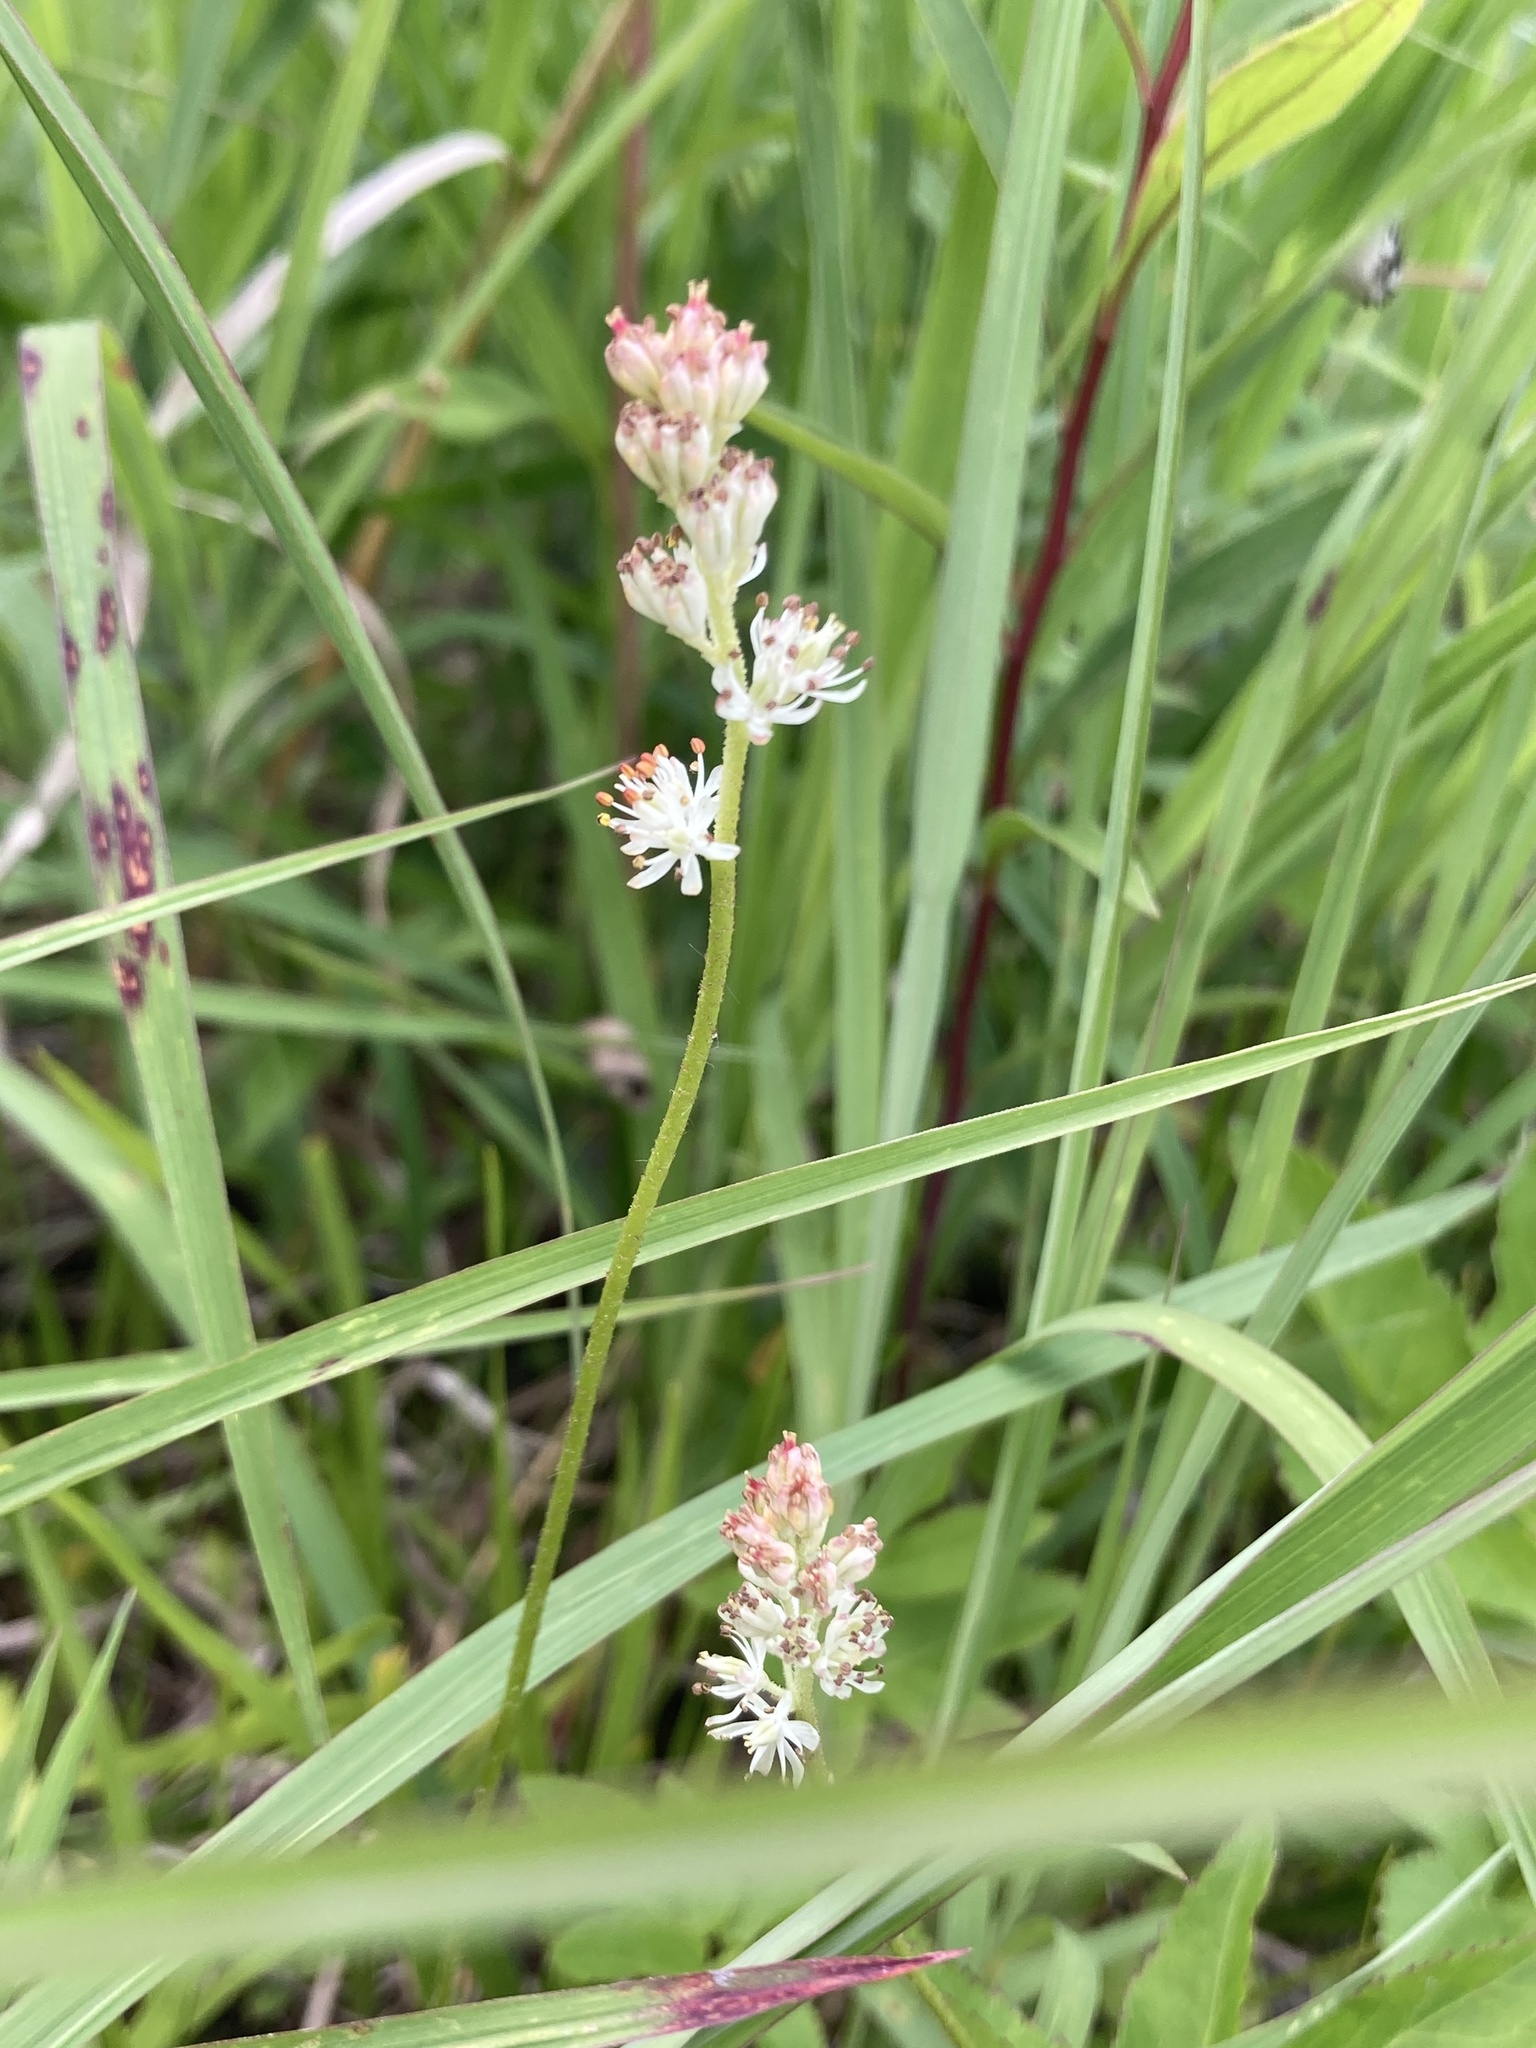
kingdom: Plantae
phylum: Tracheophyta
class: Liliopsida
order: Alismatales
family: Tofieldiaceae
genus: Triantha
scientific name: Triantha glutinosa
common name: Glutinous tofieldia
